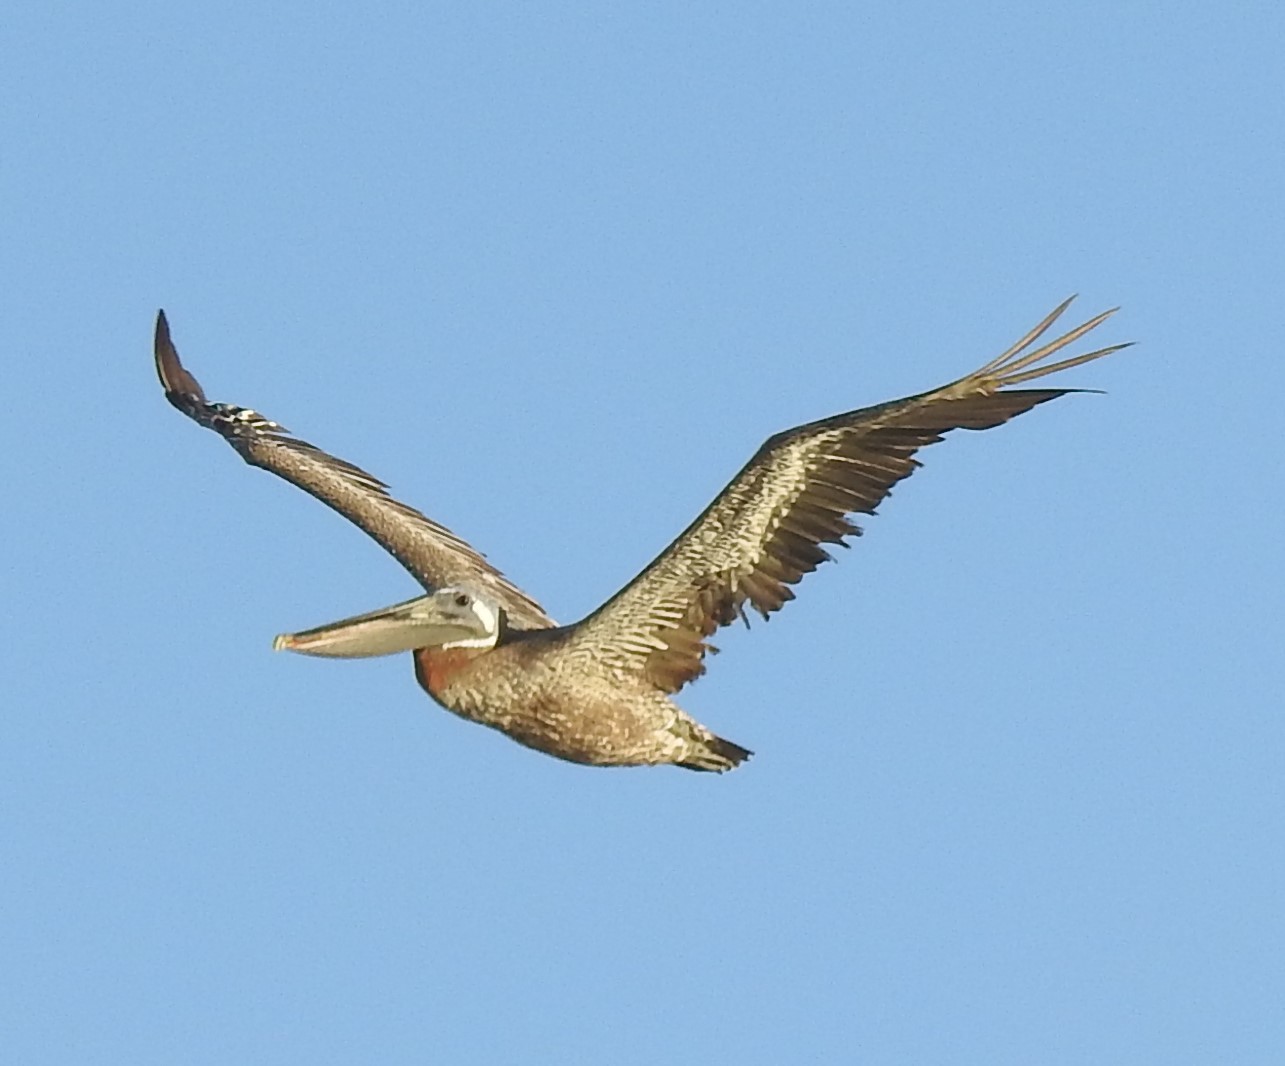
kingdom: Animalia
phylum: Chordata
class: Aves
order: Pelecaniformes
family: Pelecanidae
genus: Pelecanus
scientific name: Pelecanus occidentalis
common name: Brown pelican
